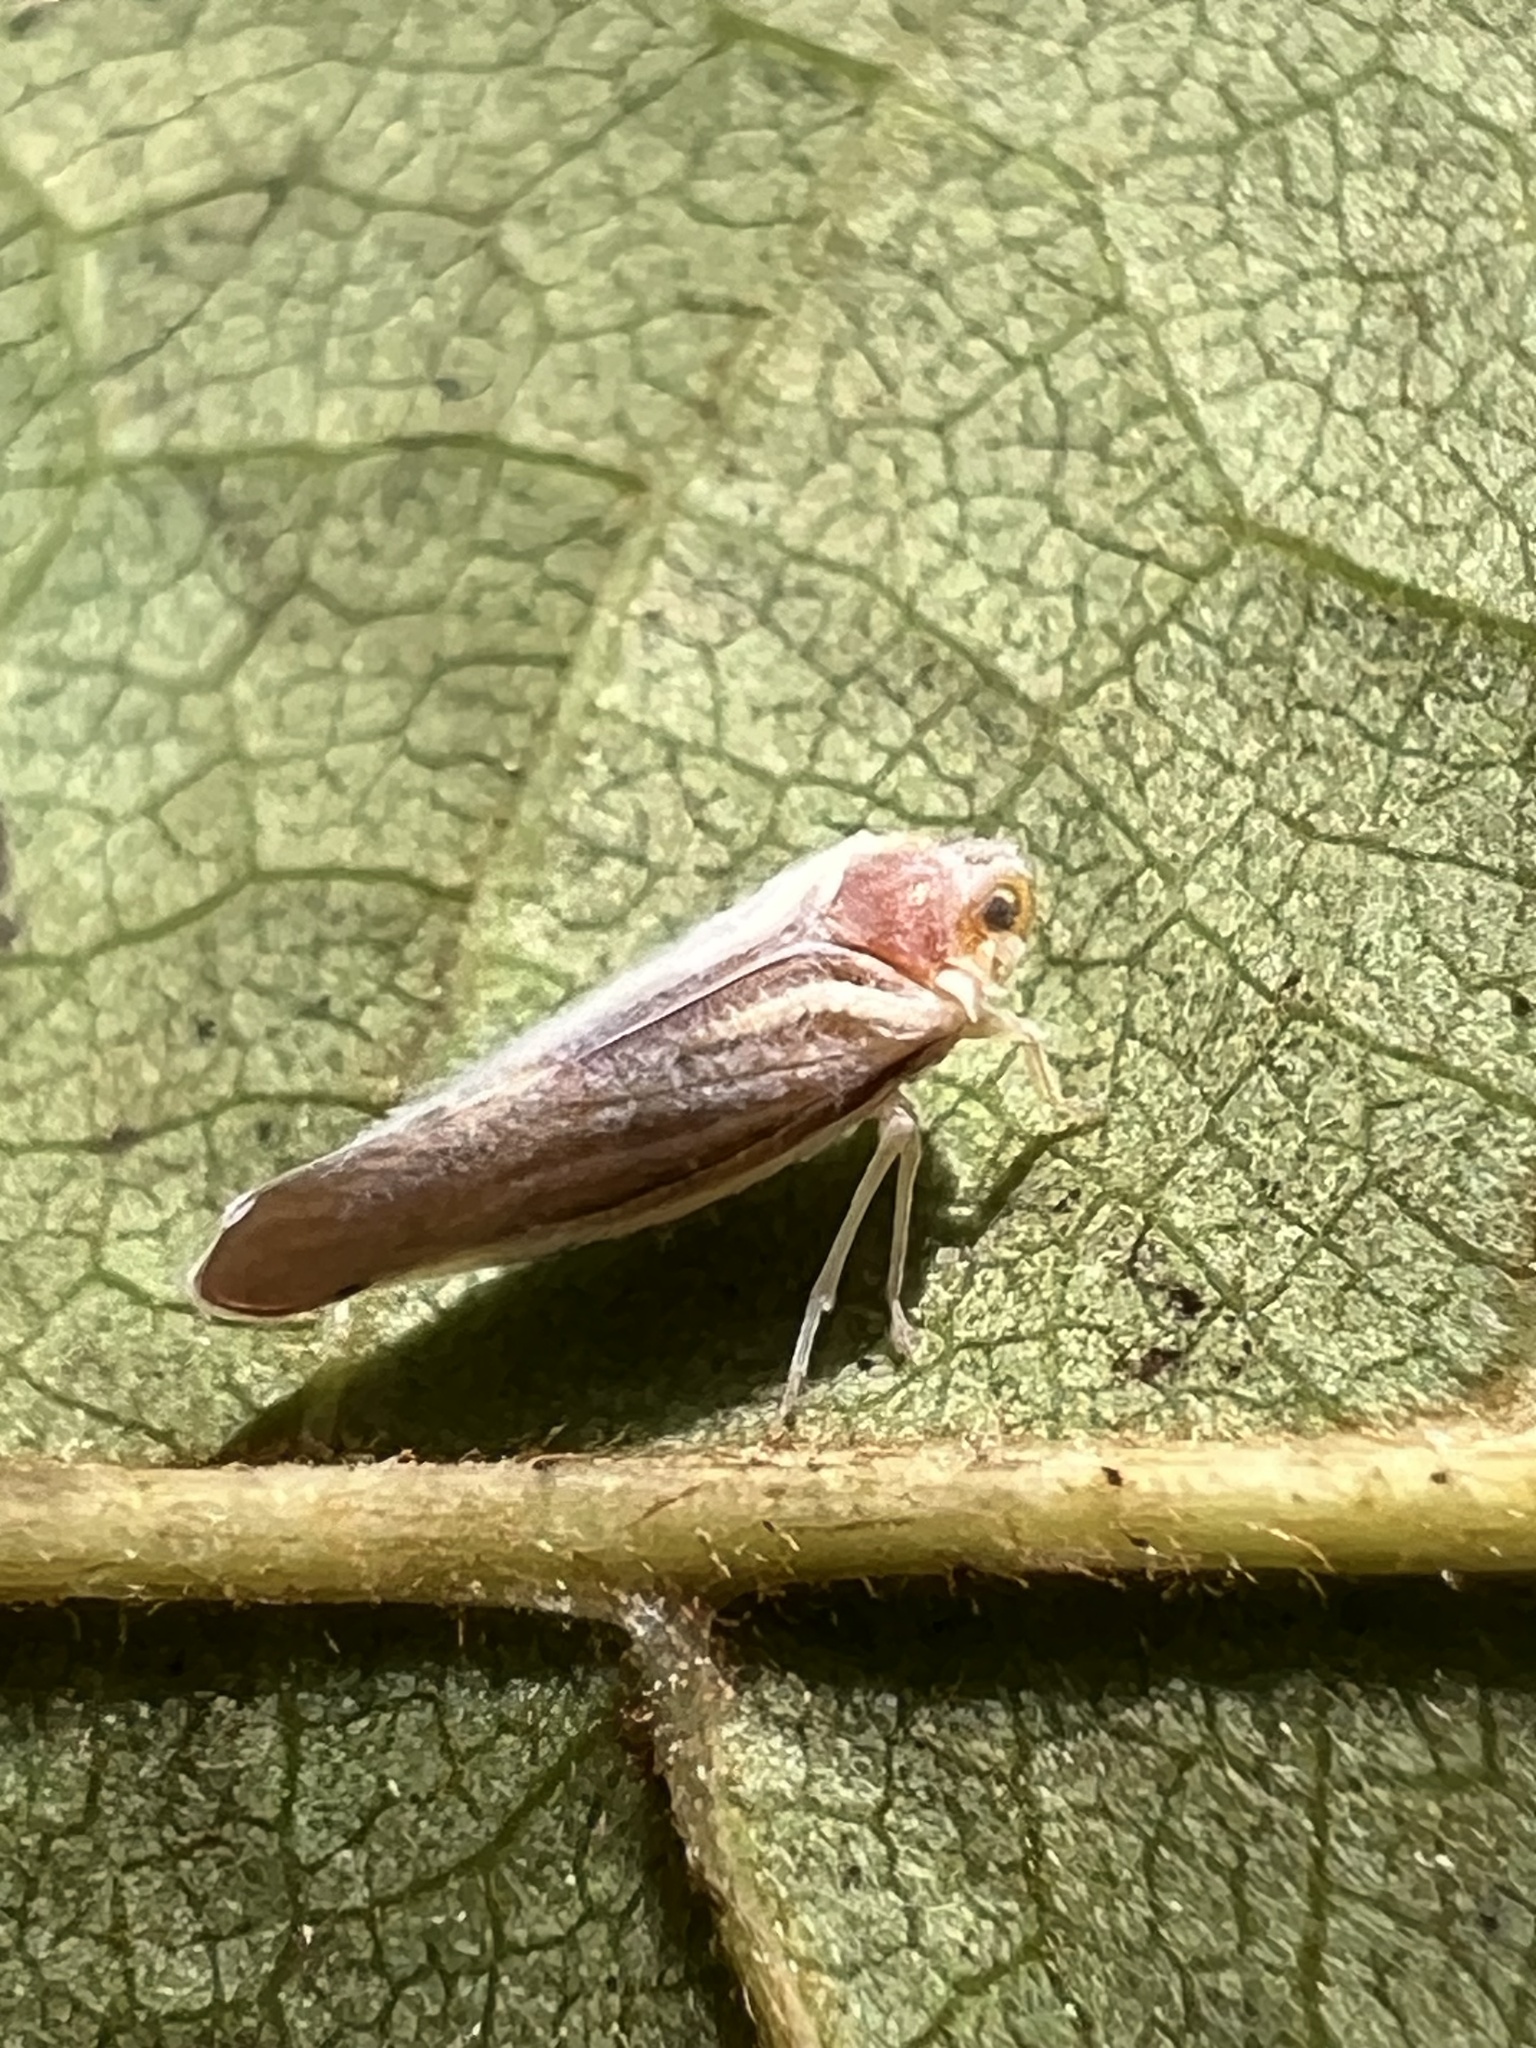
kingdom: Animalia
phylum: Arthropoda
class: Insecta
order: Hemiptera
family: Derbidae
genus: Omolicna
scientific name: Omolicna uhleri
